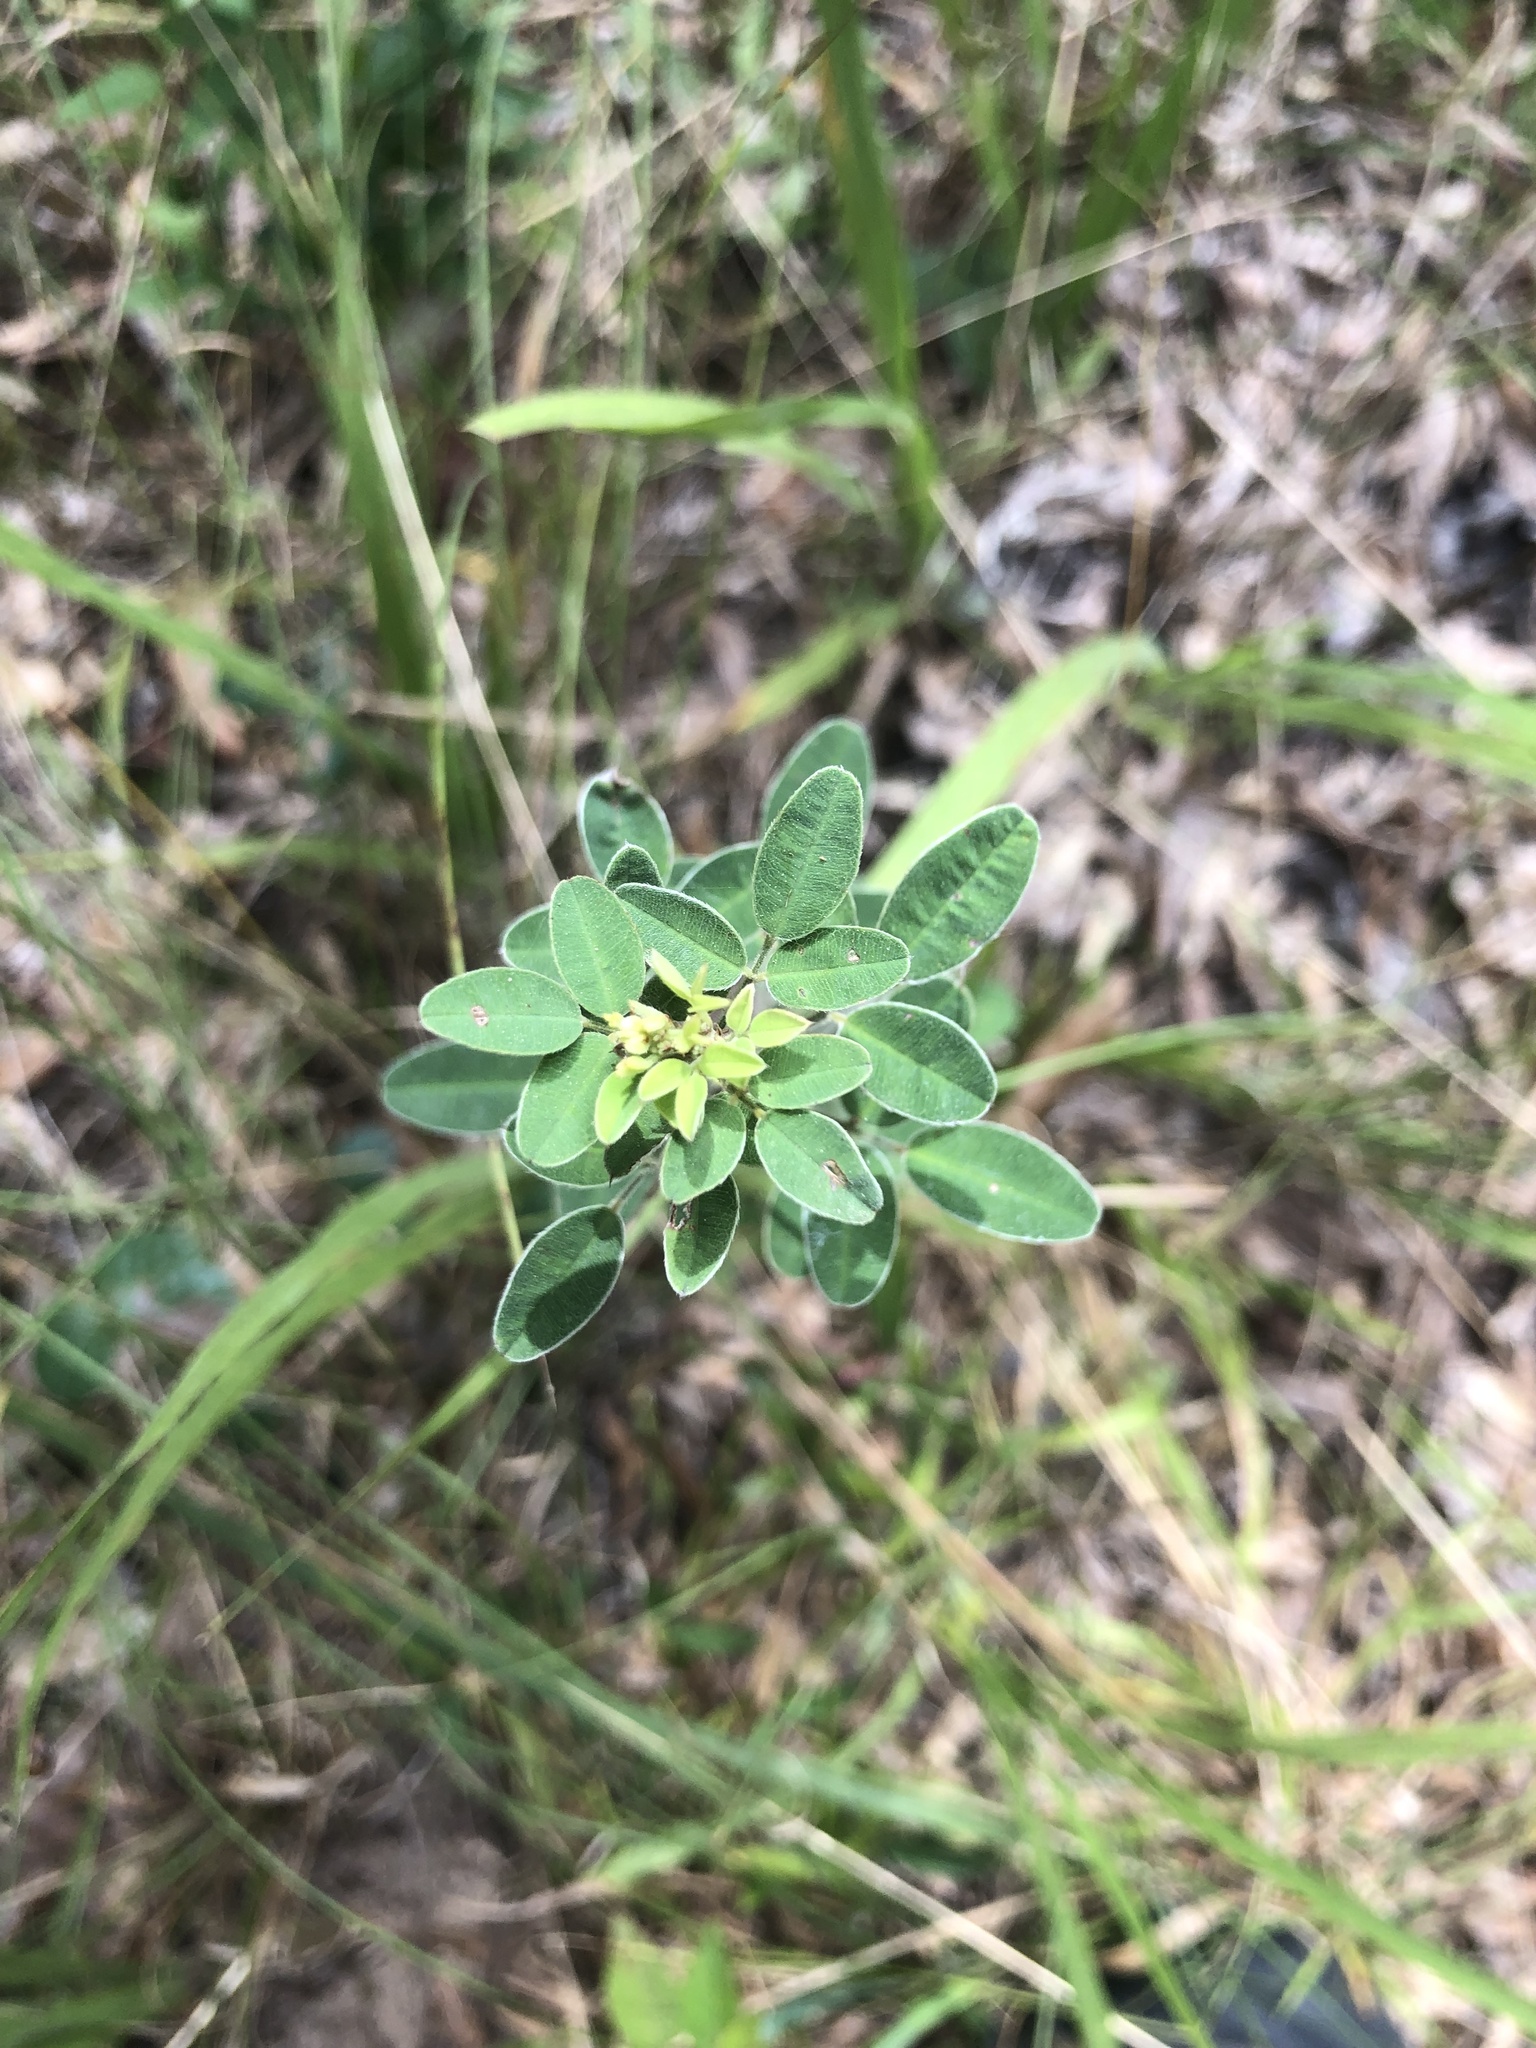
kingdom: Plantae
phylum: Tracheophyta
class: Magnoliopsida
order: Fabales
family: Fabaceae
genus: Lespedeza
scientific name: Lespedeza stuevei
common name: Tall bush-clover
